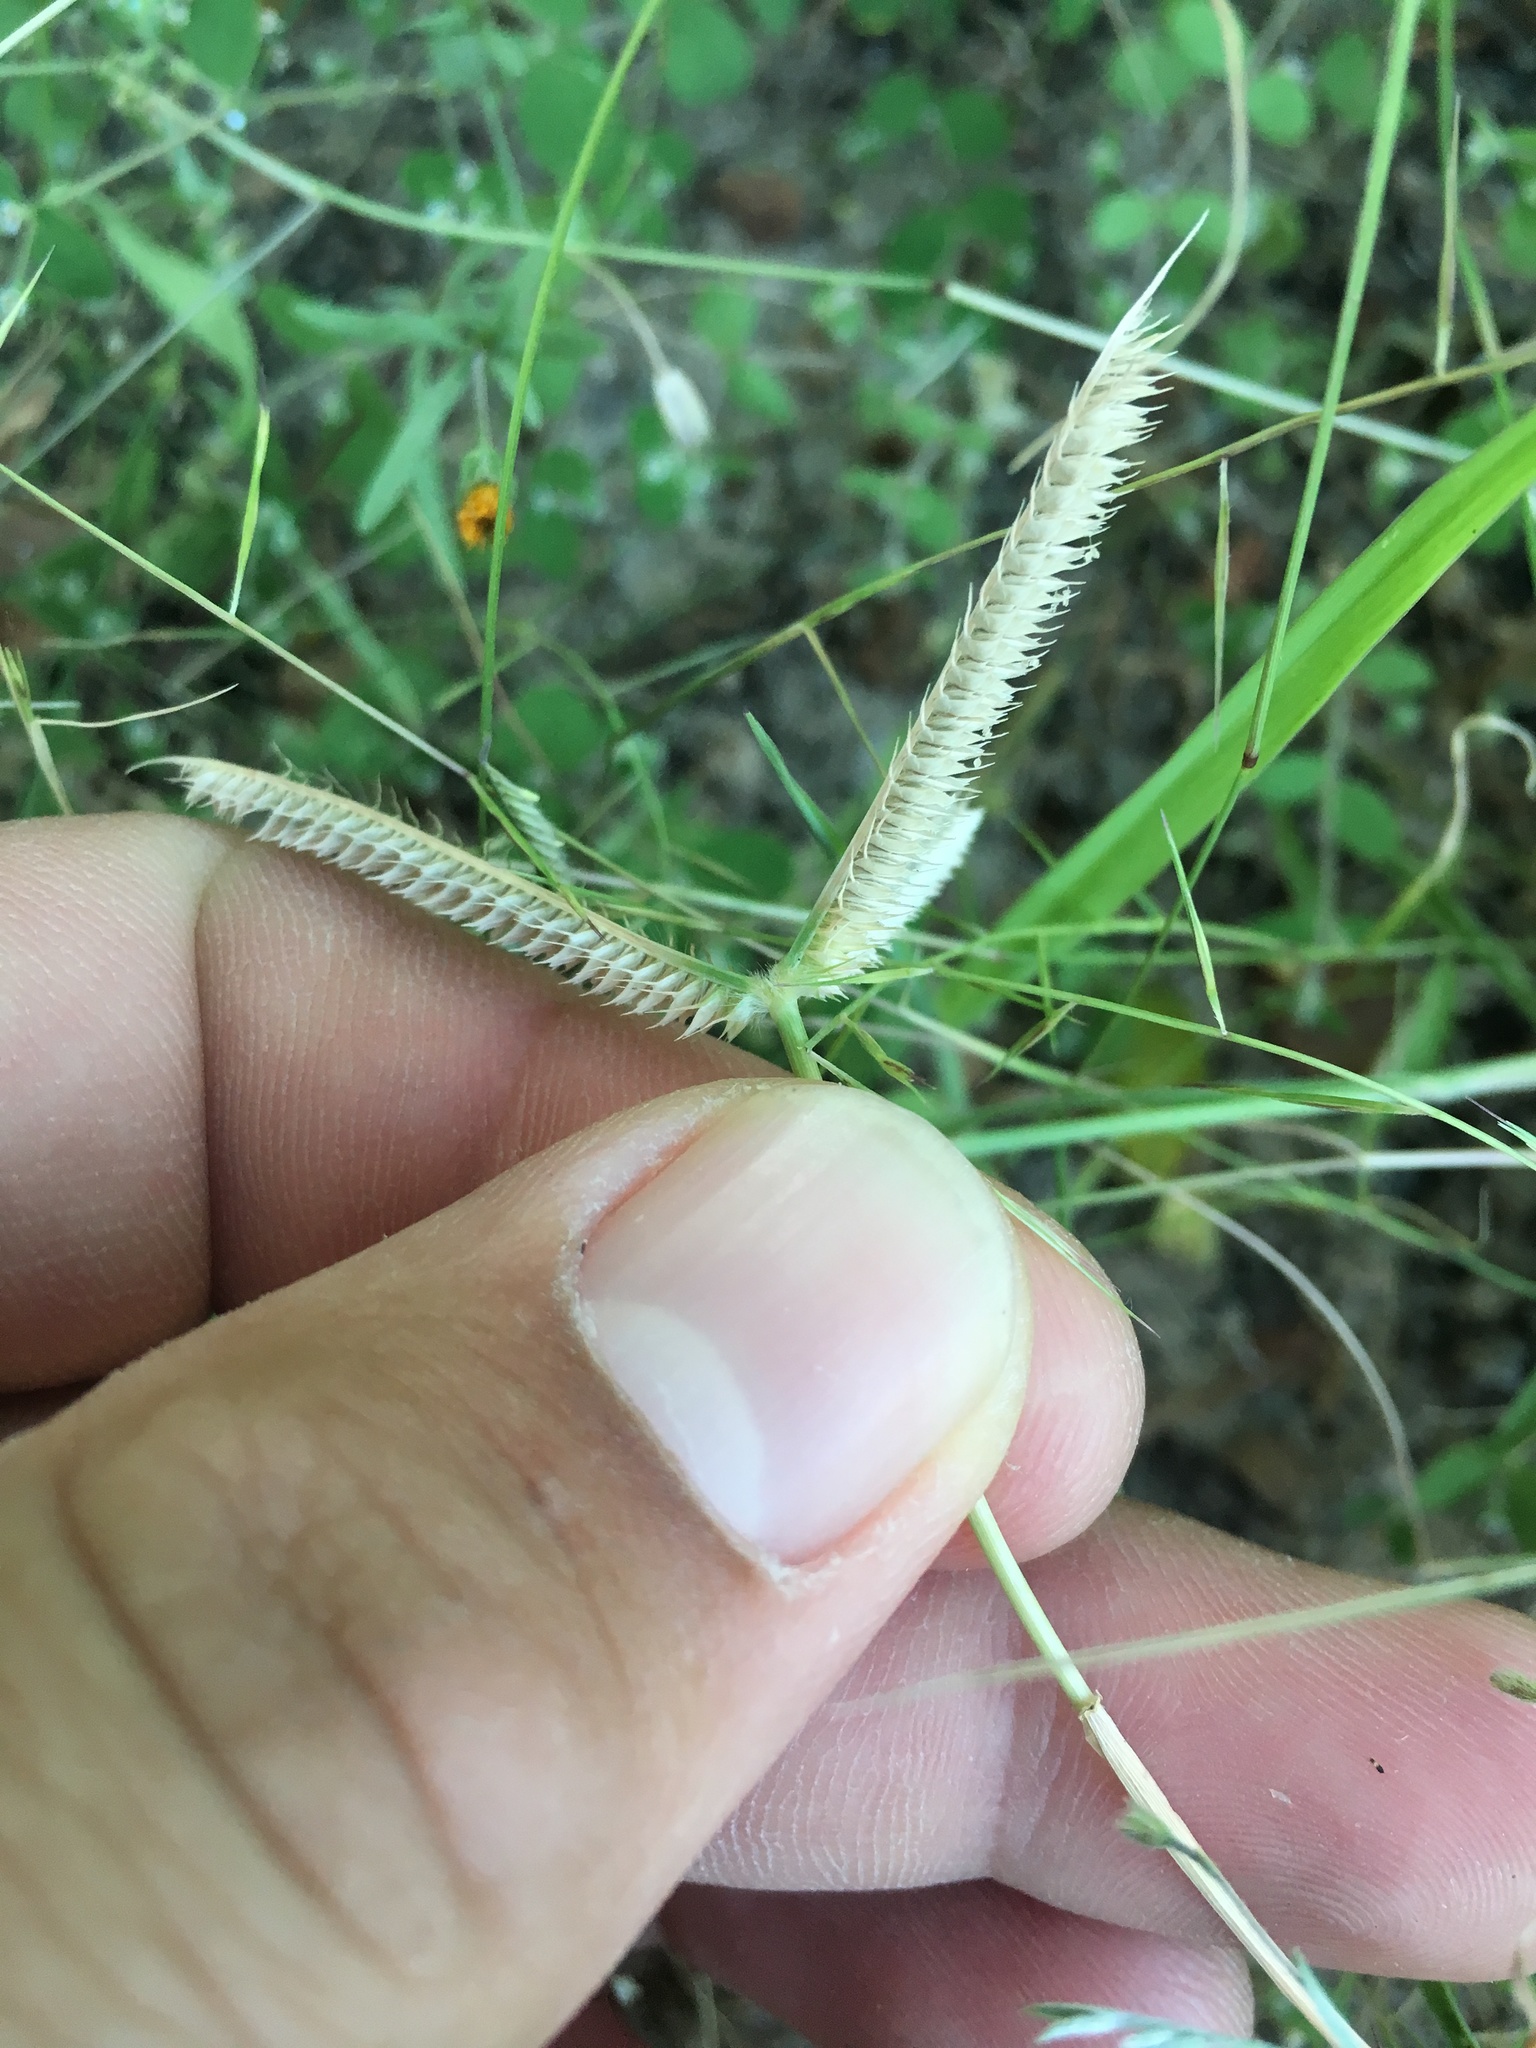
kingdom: Plantae
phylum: Tracheophyta
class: Liliopsida
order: Poales
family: Poaceae
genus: Dactyloctenium
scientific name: Dactyloctenium aegyptium
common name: Egyptian grass
